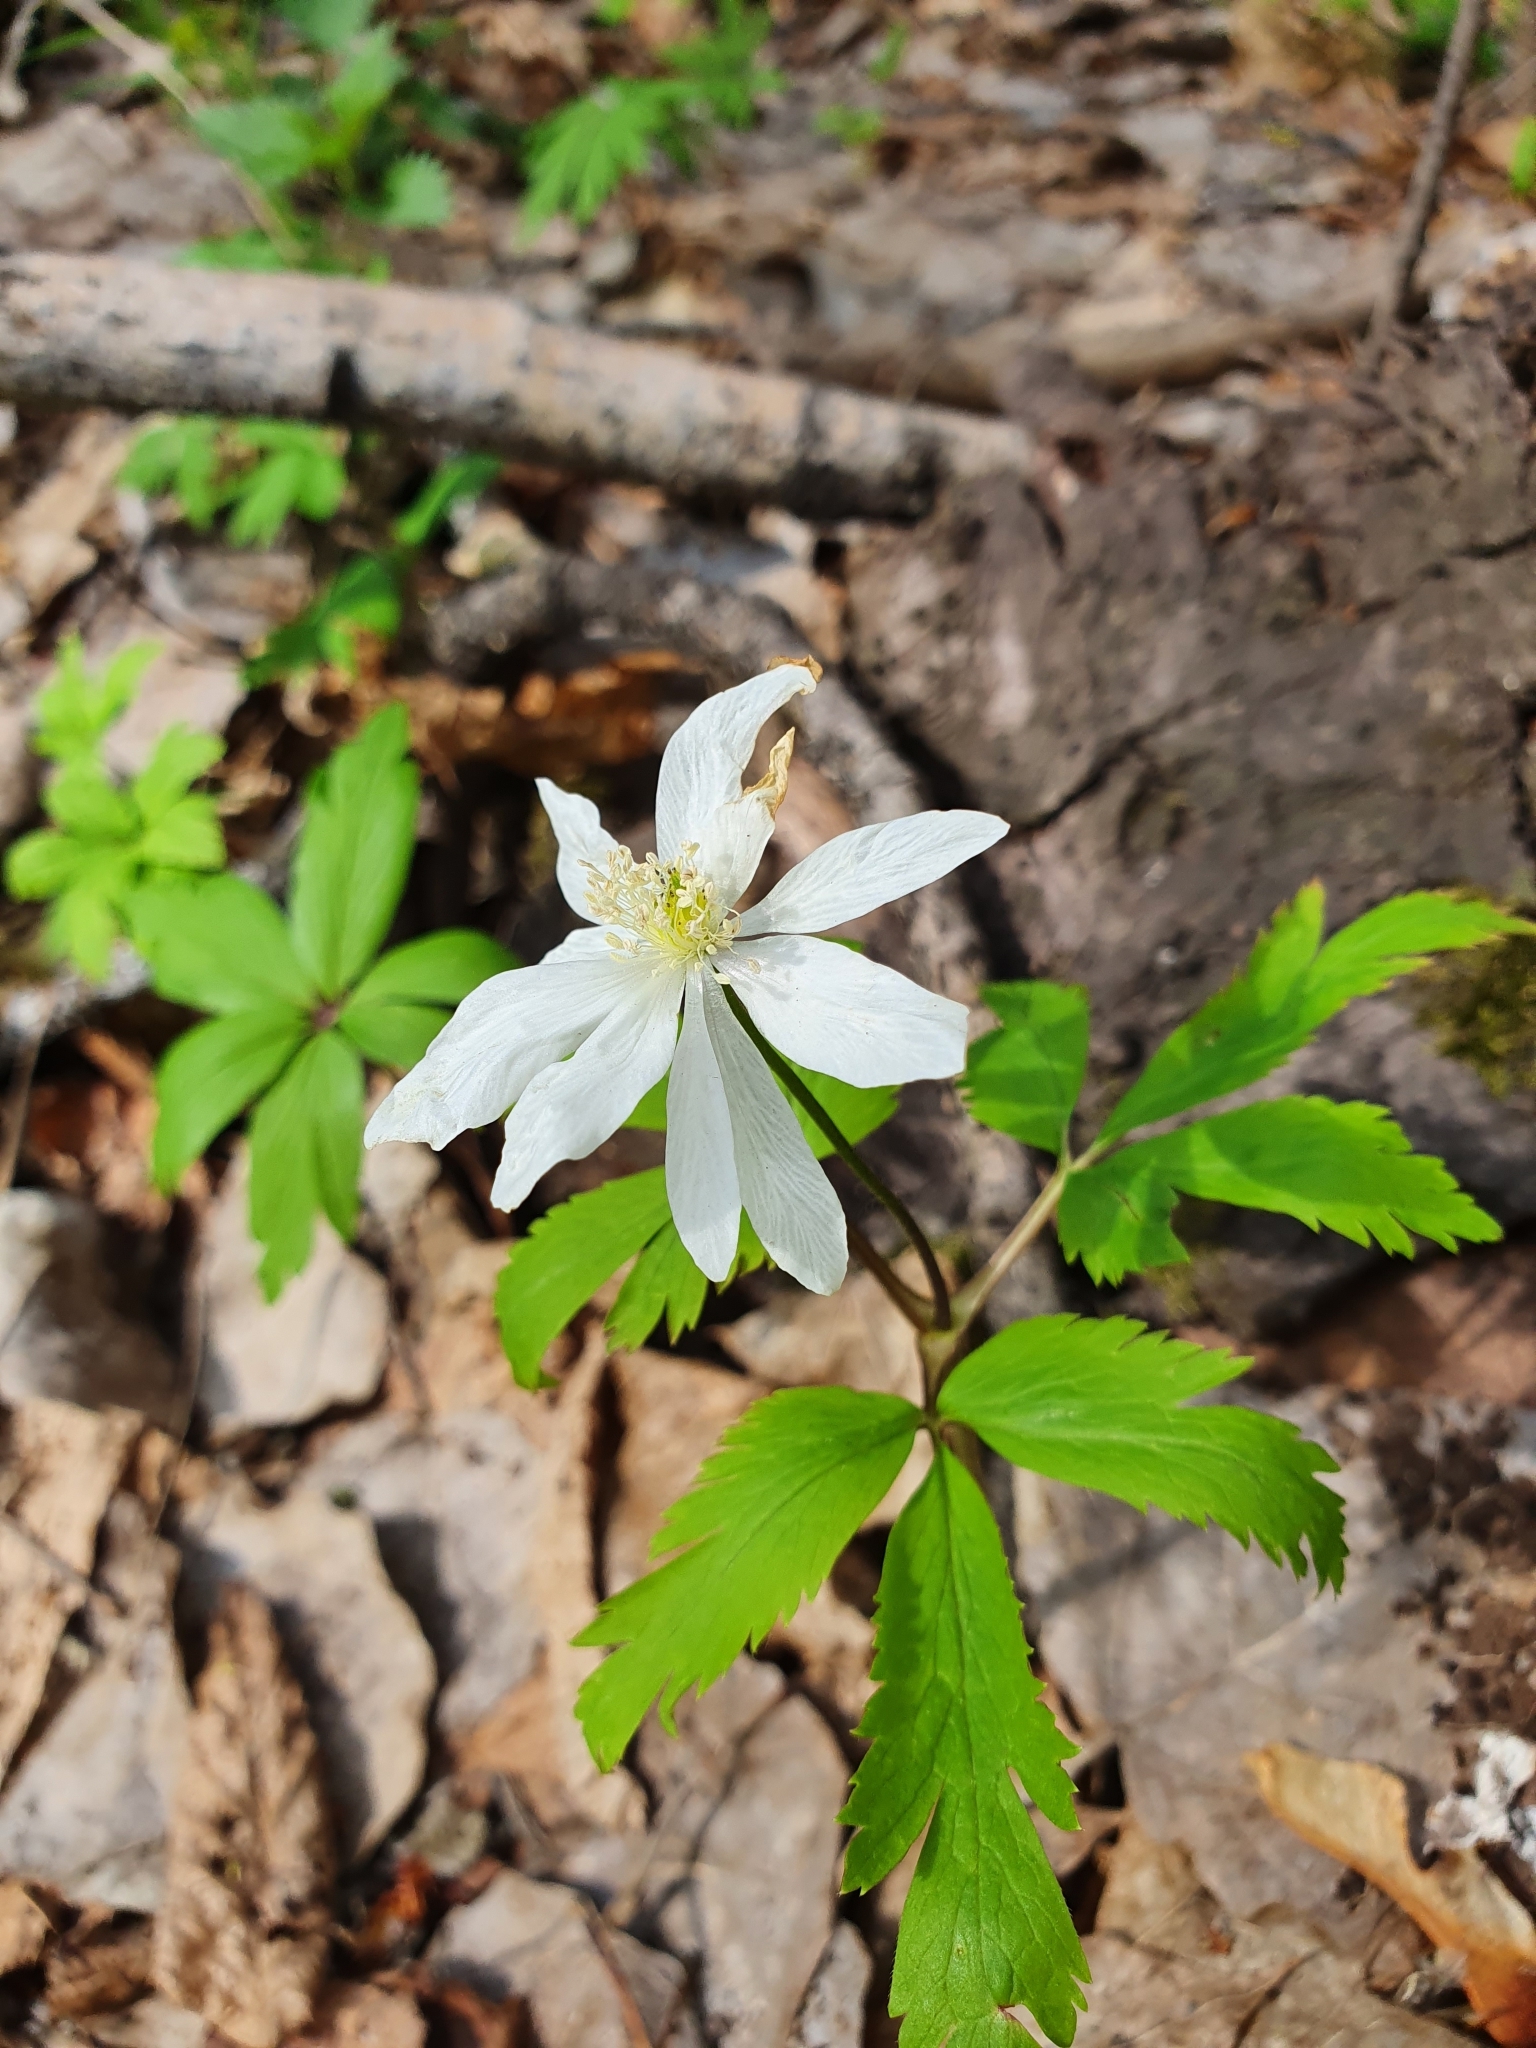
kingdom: Plantae
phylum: Tracheophyta
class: Magnoliopsida
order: Ranunculales
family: Ranunculaceae
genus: Anemone
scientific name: Anemone altaica
